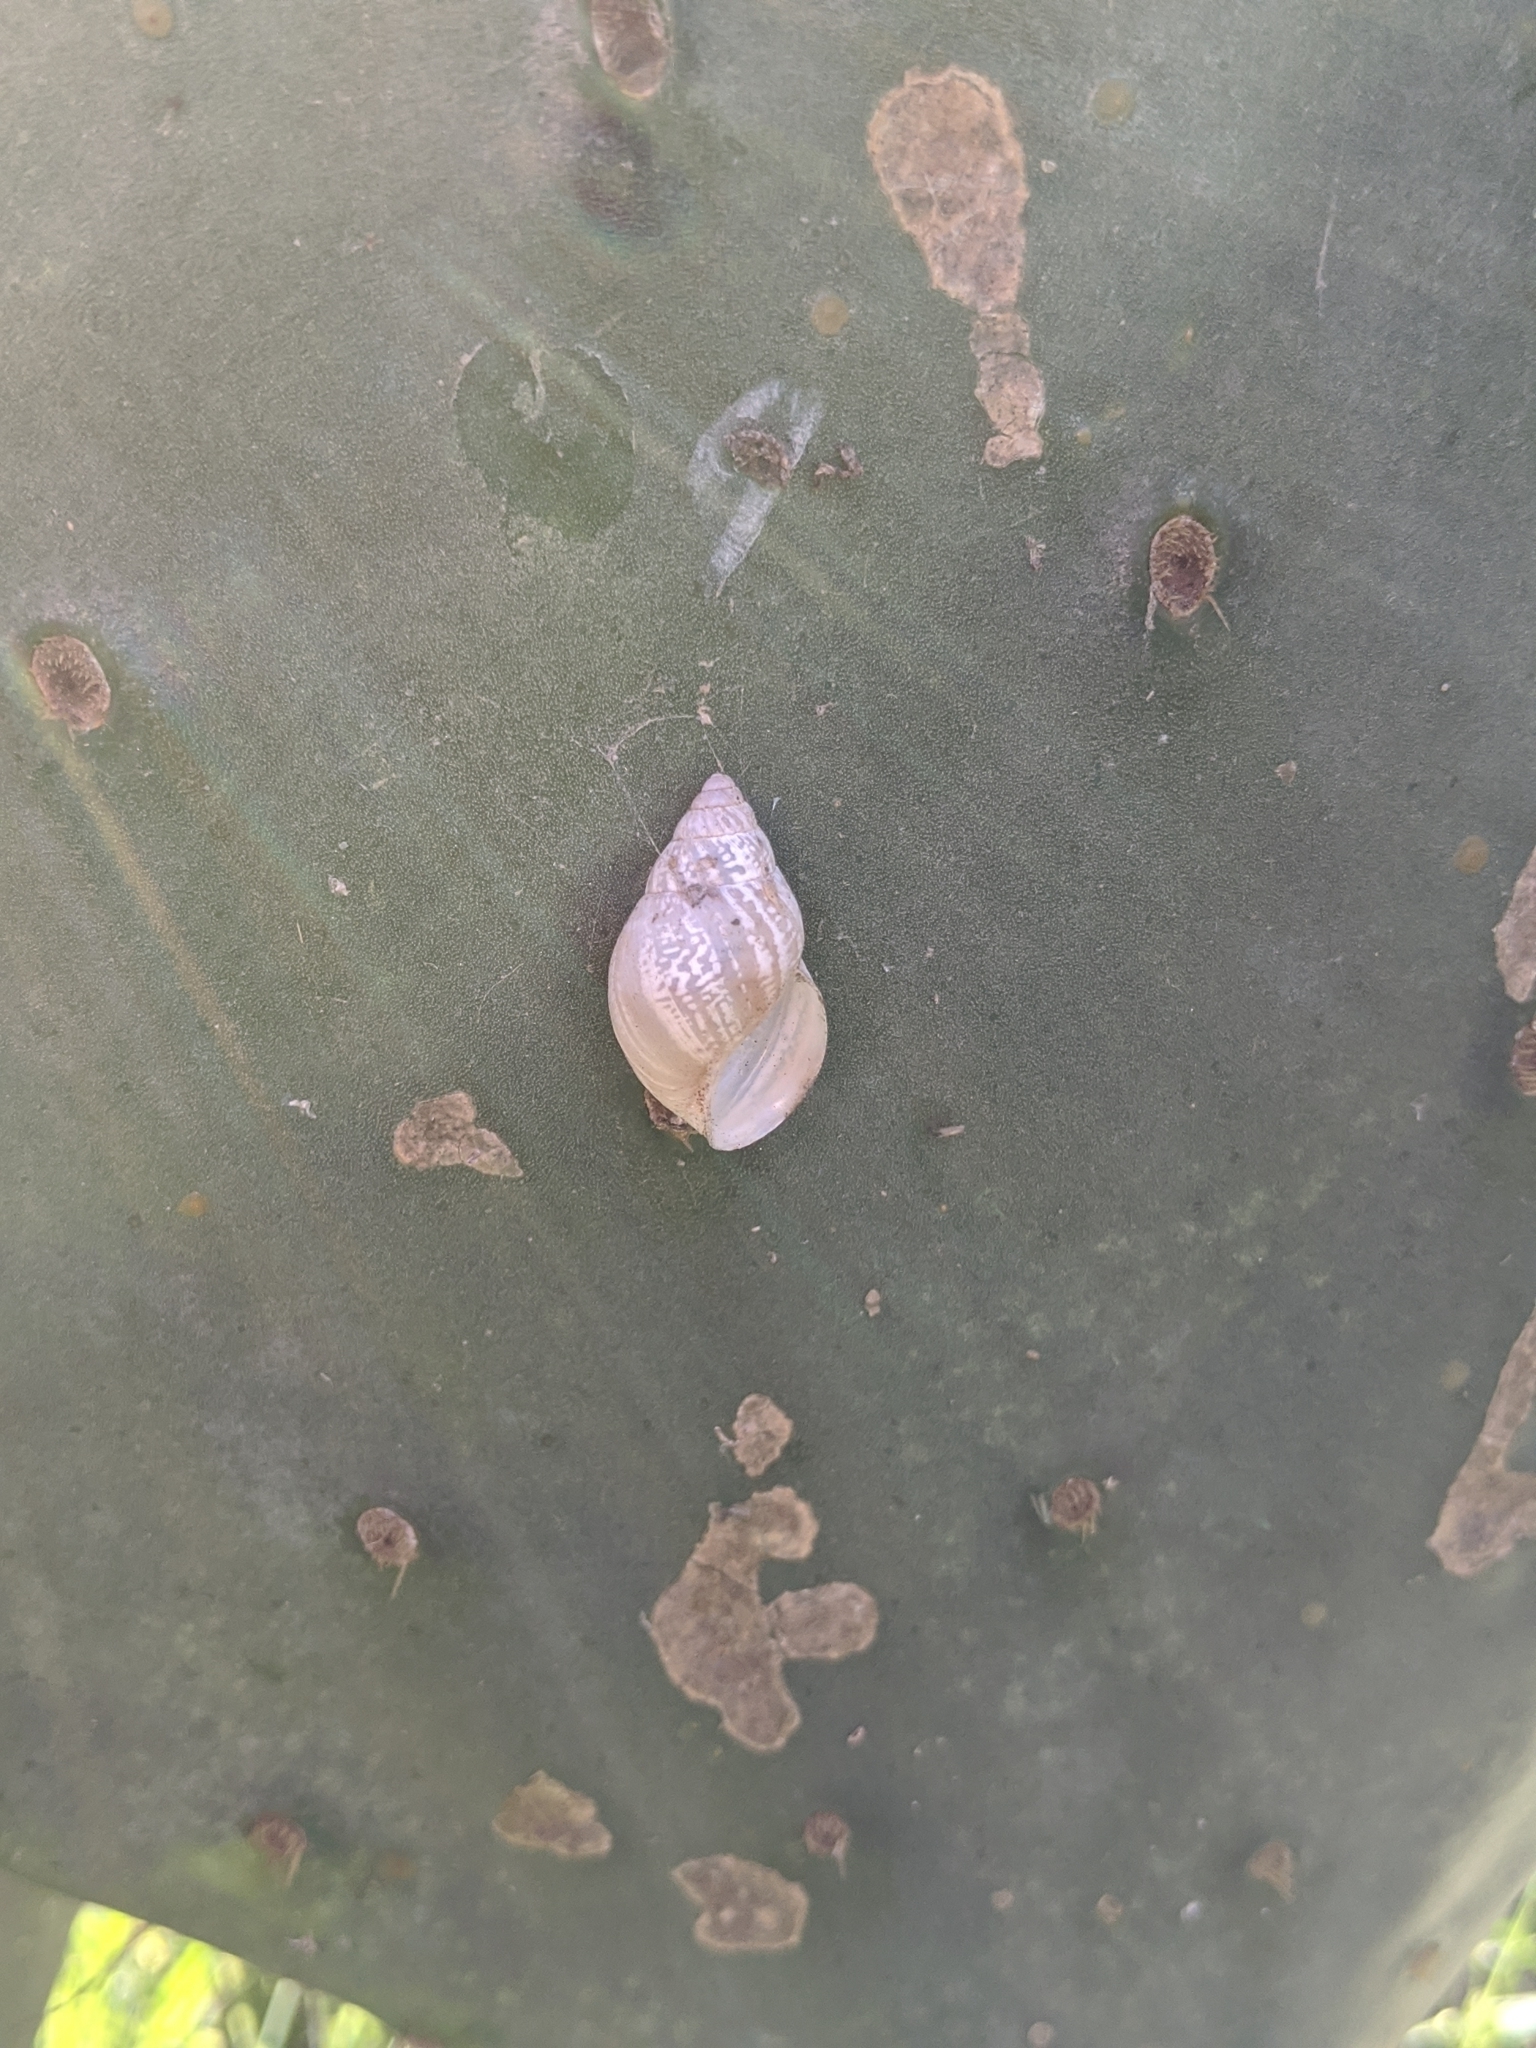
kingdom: Animalia
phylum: Mollusca
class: Gastropoda
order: Stylommatophora
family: Bulimulidae
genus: Rabdotus
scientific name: Rabdotus dealbatus
